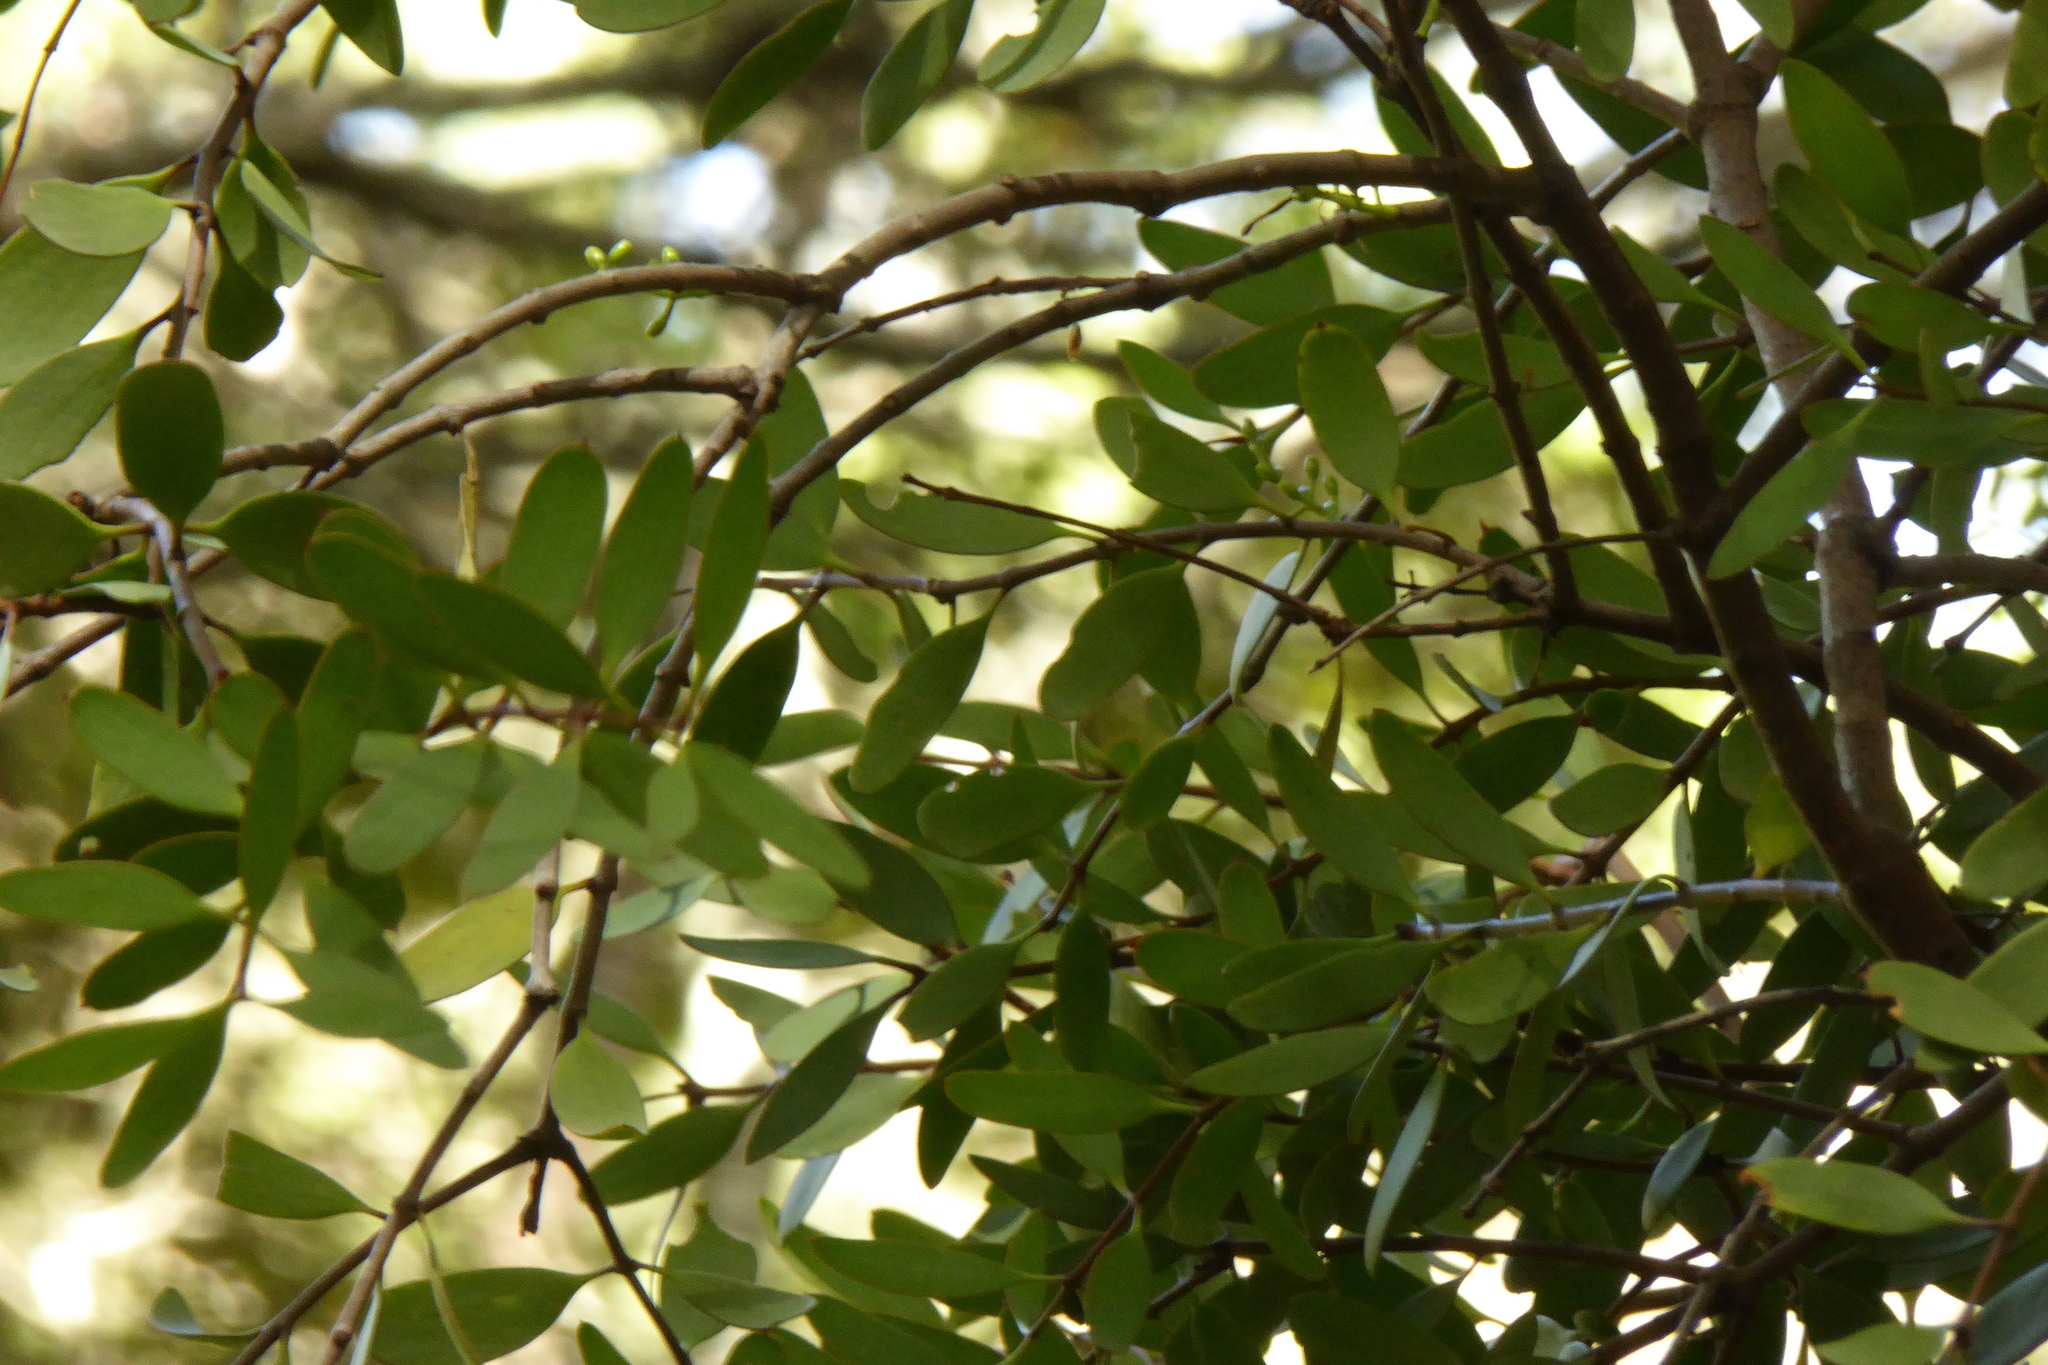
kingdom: Plantae
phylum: Tracheophyta
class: Magnoliopsida
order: Santalales
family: Loranthaceae
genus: Alepis
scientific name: Alepis flavida
